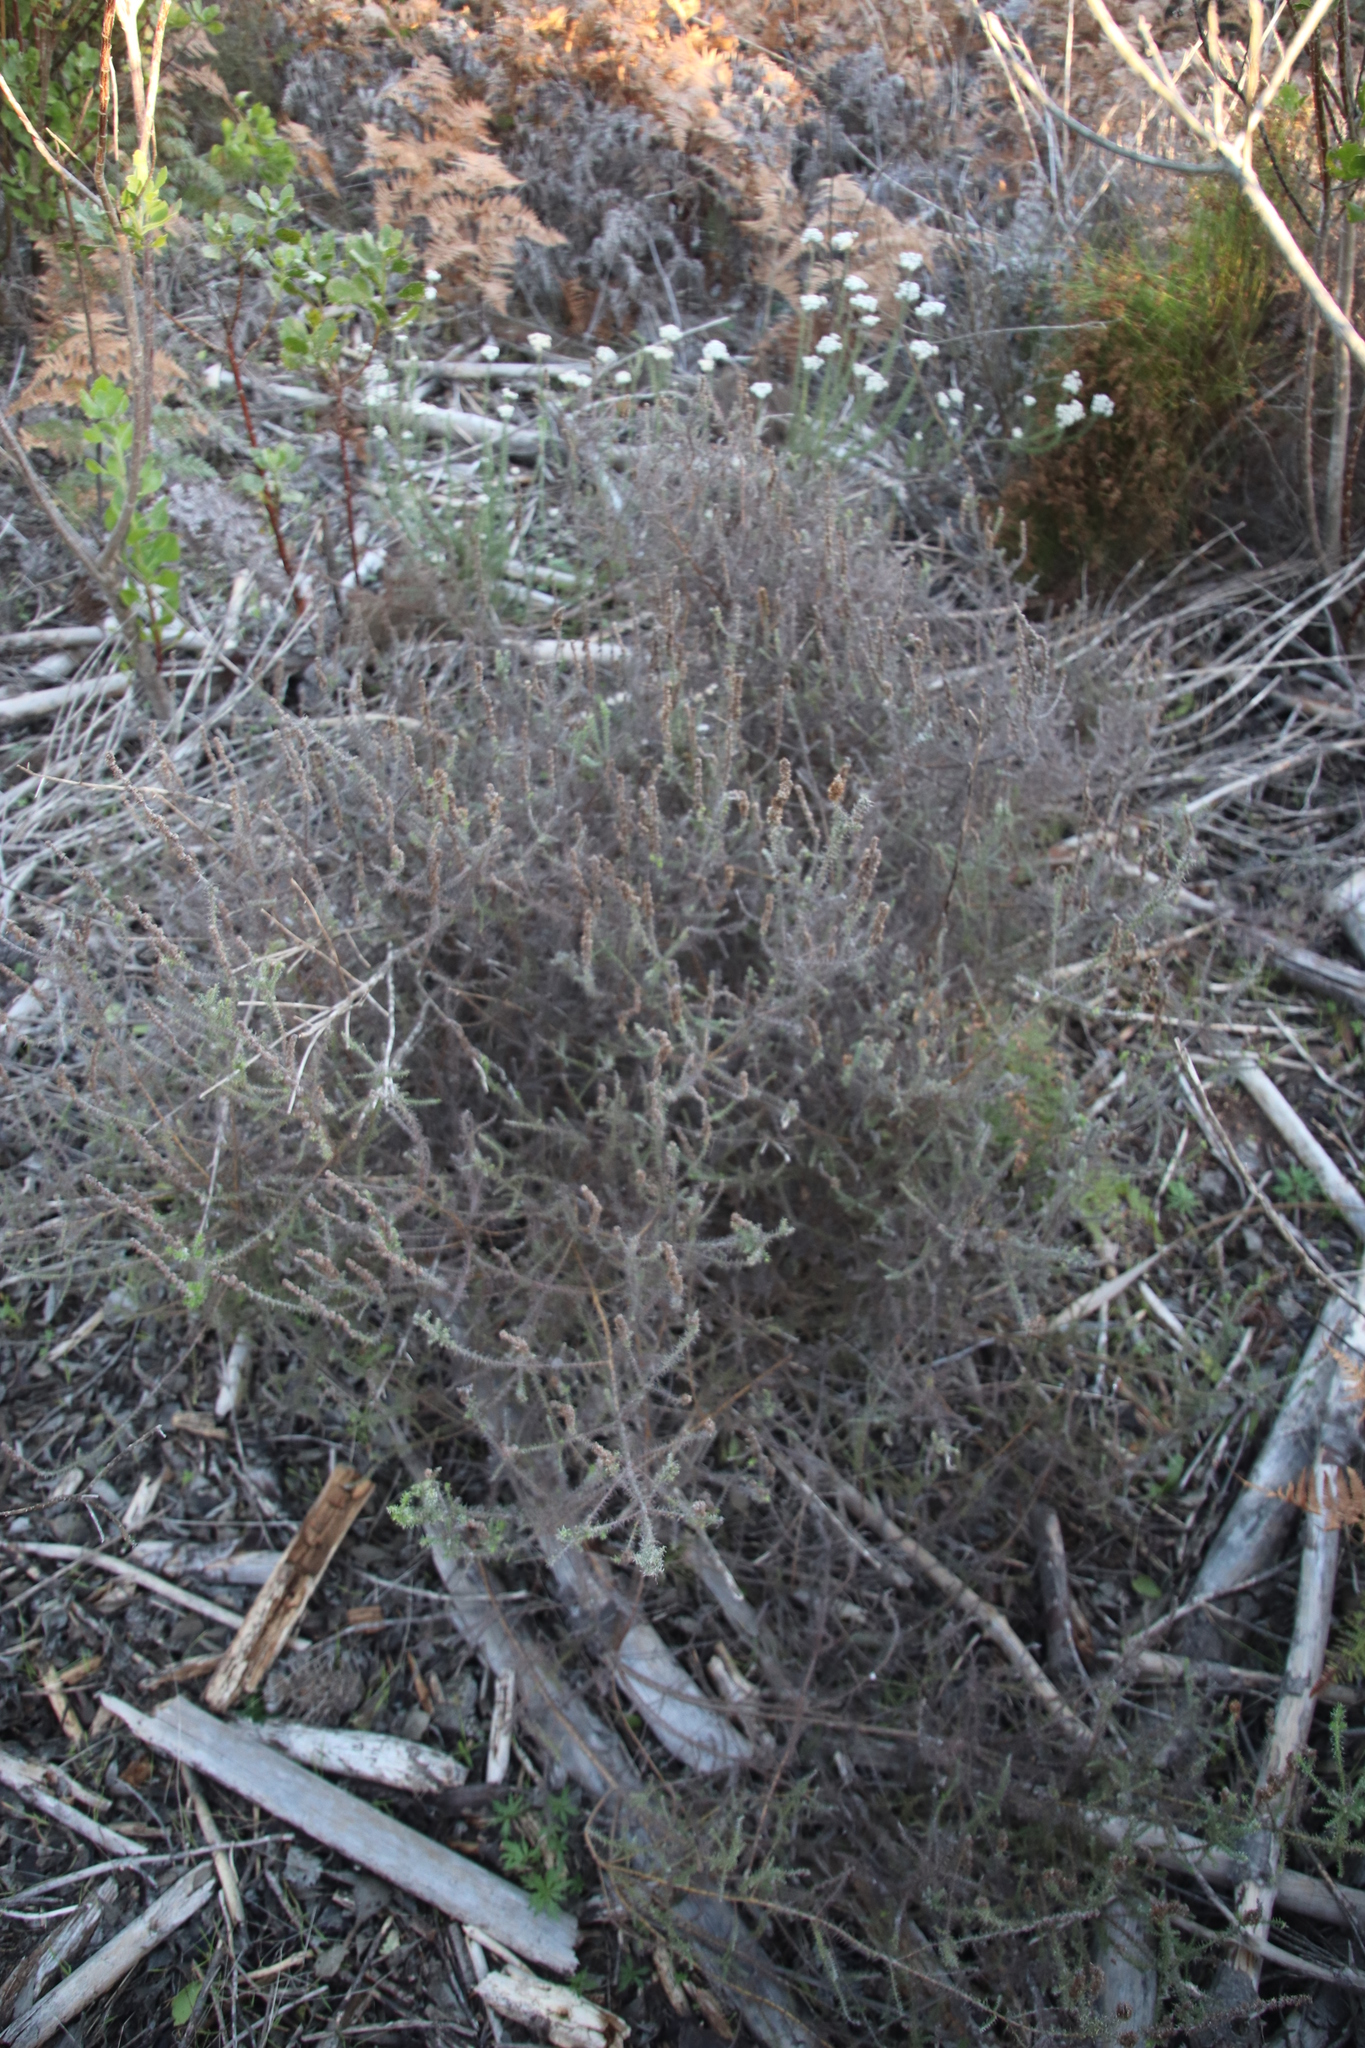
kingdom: Plantae
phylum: Tracheophyta
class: Magnoliopsida
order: Asterales
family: Asteraceae
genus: Seriphium
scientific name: Seriphium cinereum
